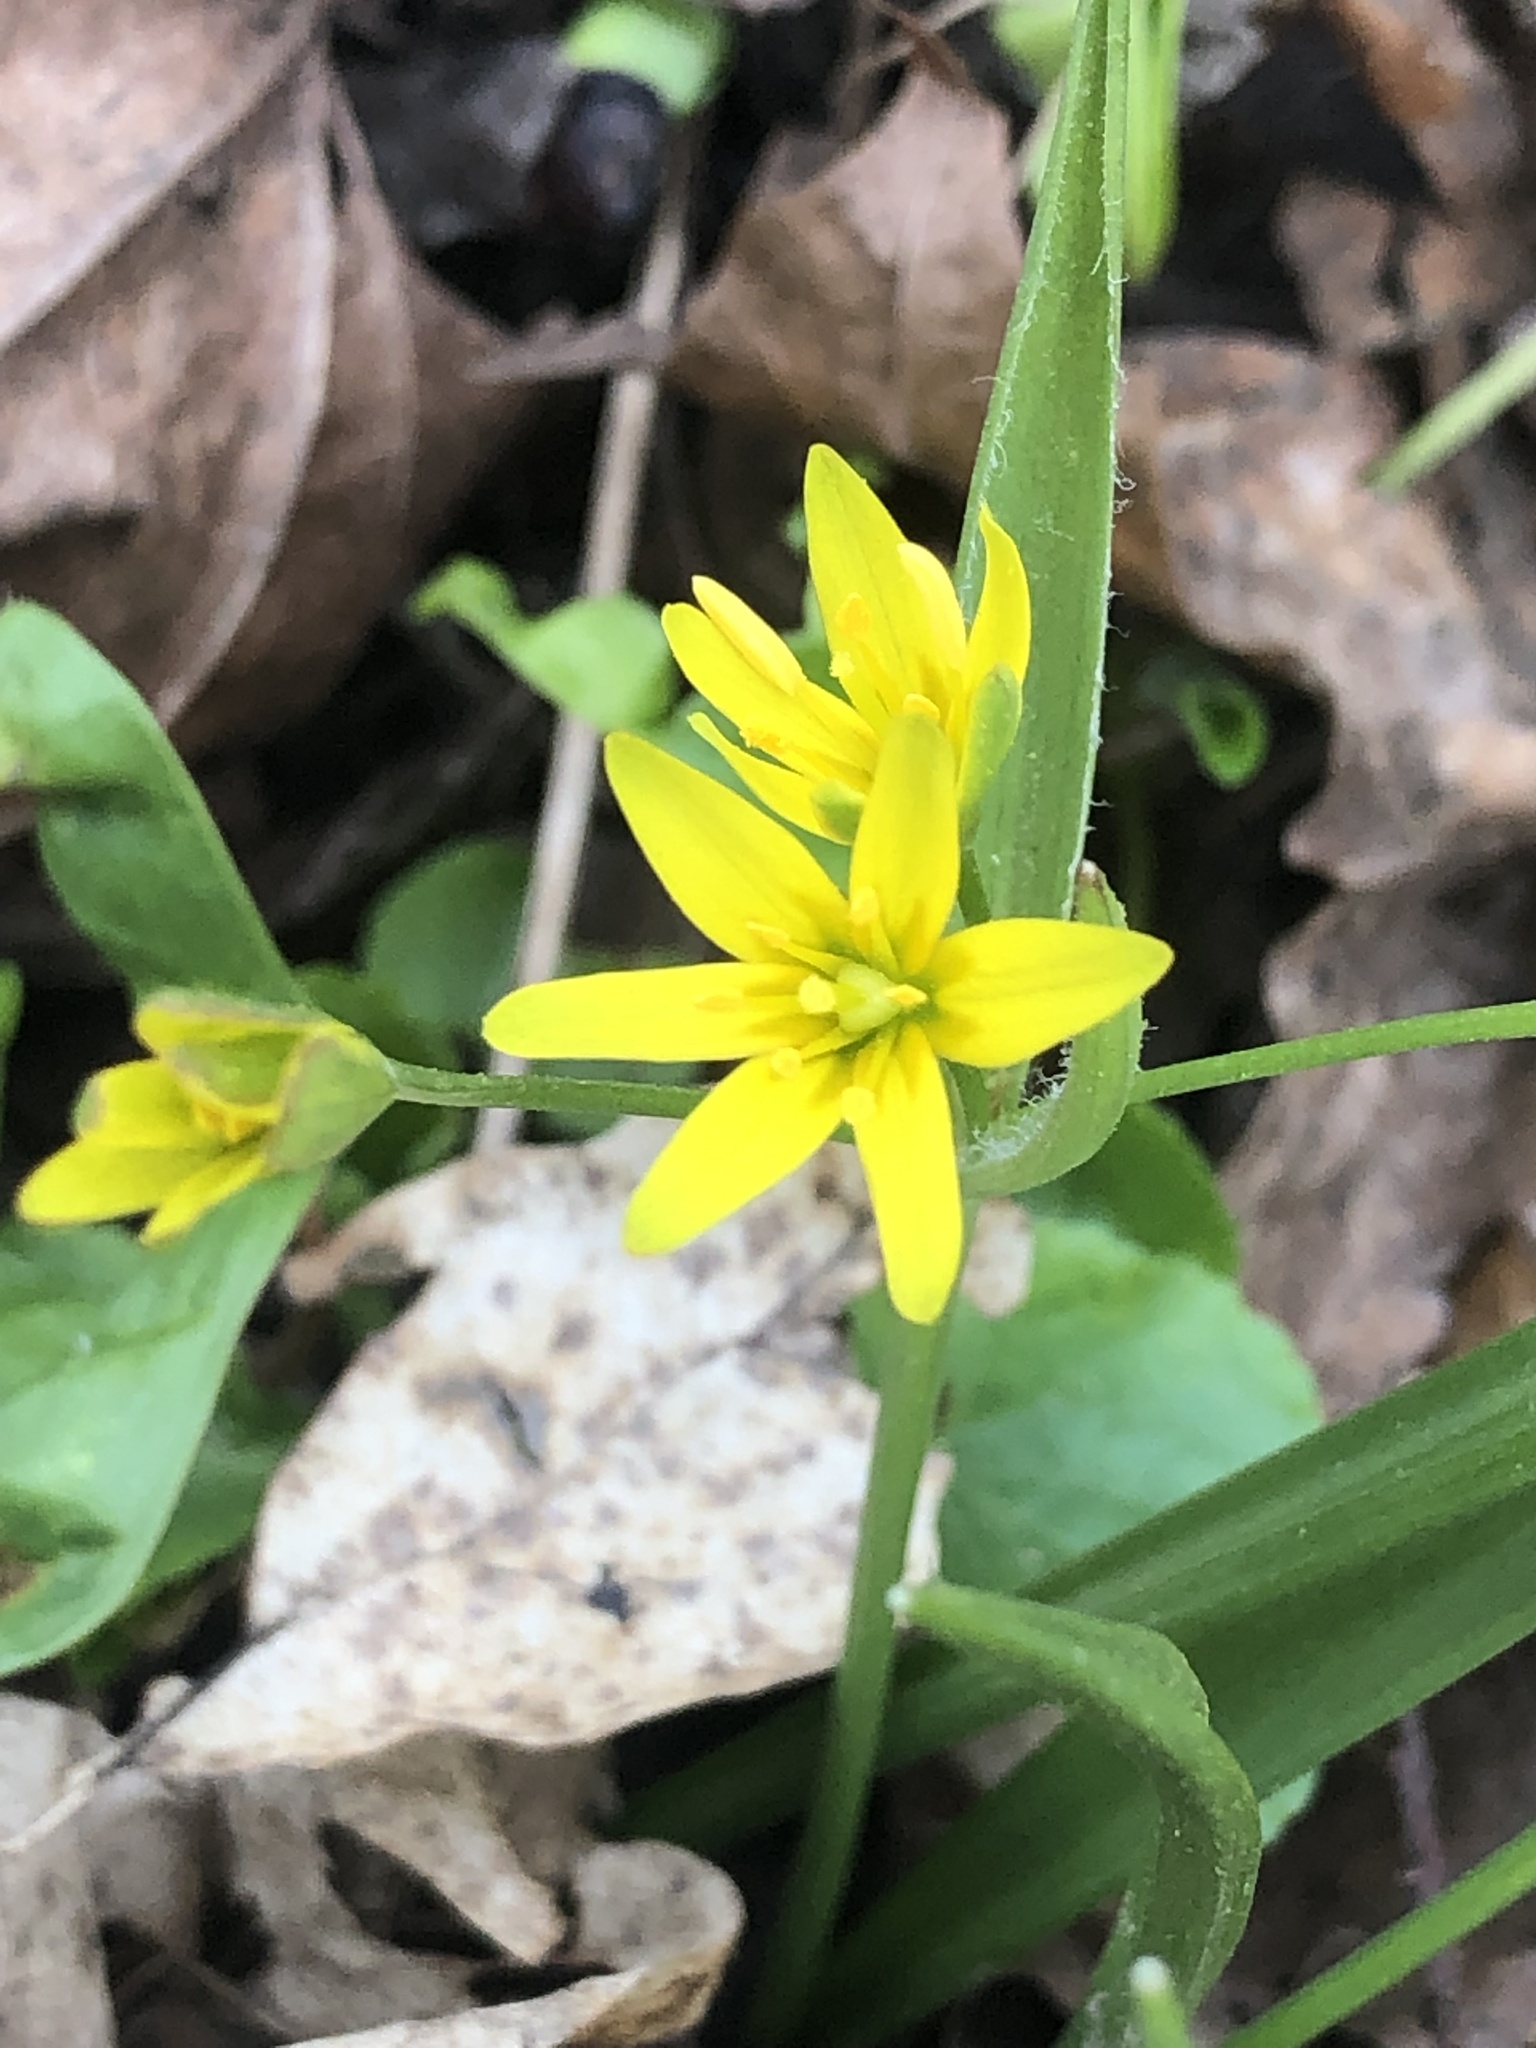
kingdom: Plantae
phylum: Tracheophyta
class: Liliopsida
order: Liliales
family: Liliaceae
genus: Gagea
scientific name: Gagea lutea
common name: Yellow star-of-bethlehem
